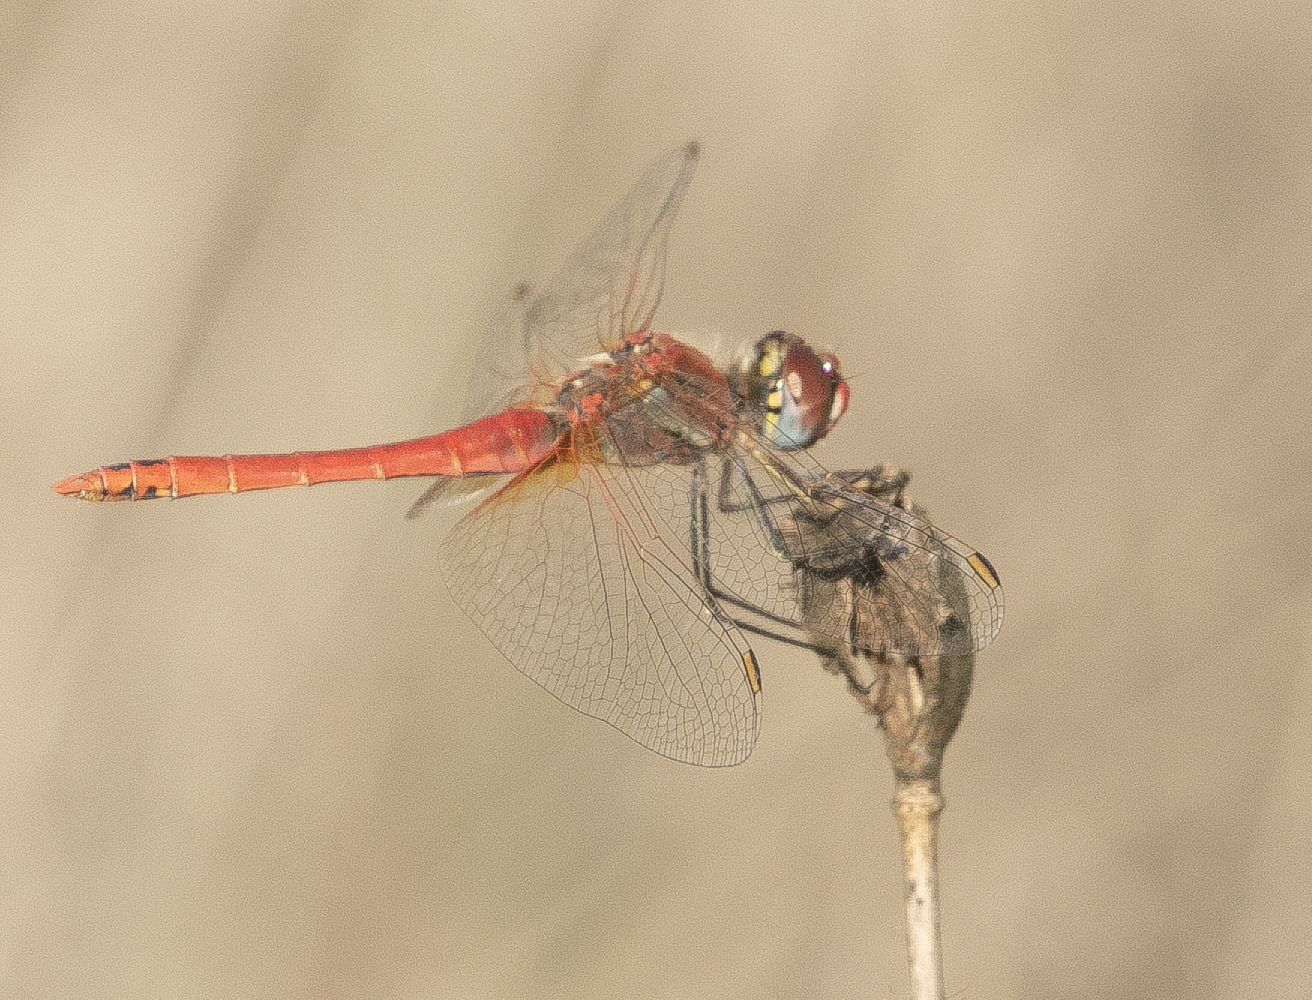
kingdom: Animalia
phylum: Arthropoda
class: Insecta
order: Odonata
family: Libellulidae
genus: Sympetrum
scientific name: Sympetrum fonscolombii
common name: Red-veined darter
